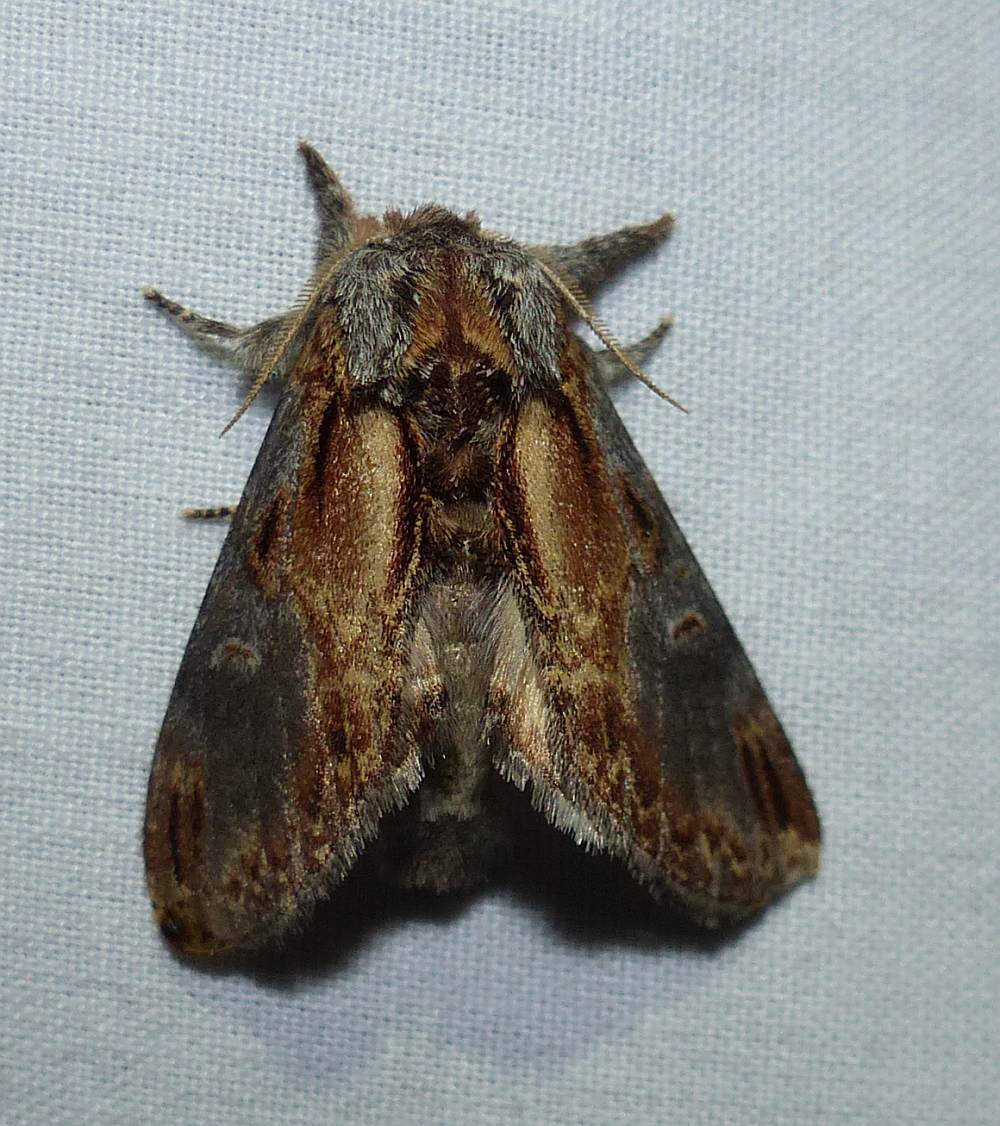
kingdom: Animalia
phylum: Arthropoda
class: Insecta
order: Lepidoptera
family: Notodontidae
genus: Notodonta
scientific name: Notodonta scitipennis
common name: Finned-willow prominent moth
